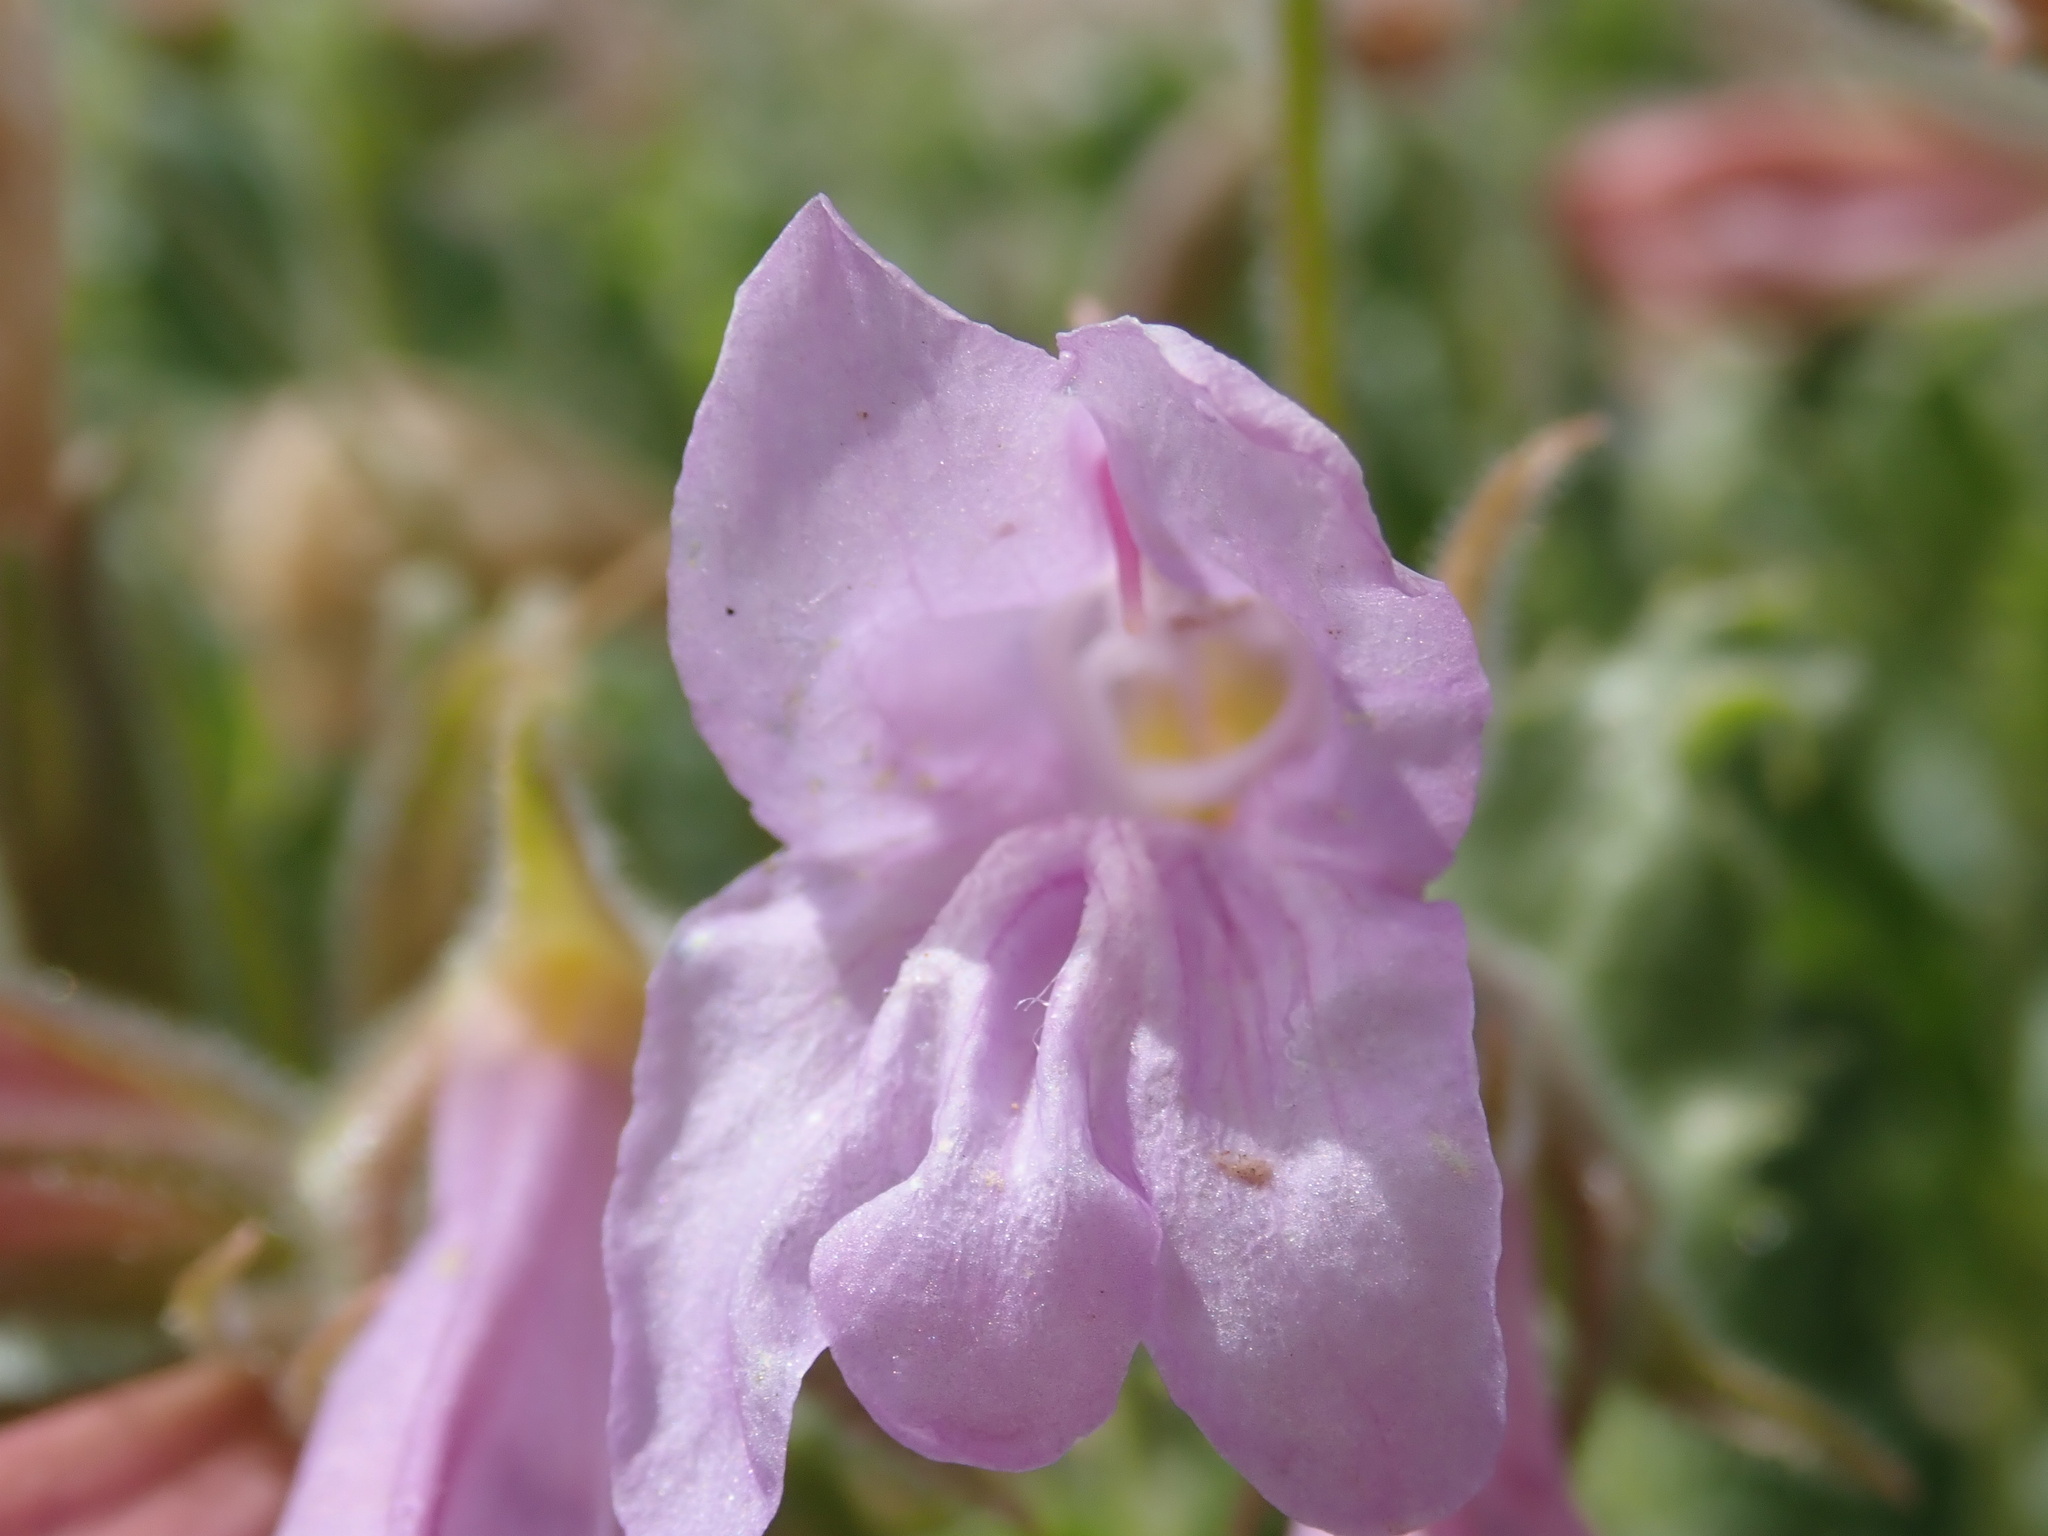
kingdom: Plantae
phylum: Tracheophyta
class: Magnoliopsida
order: Lamiales
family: Plantaginaceae
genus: Penstemon
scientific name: Penstemon montanus
